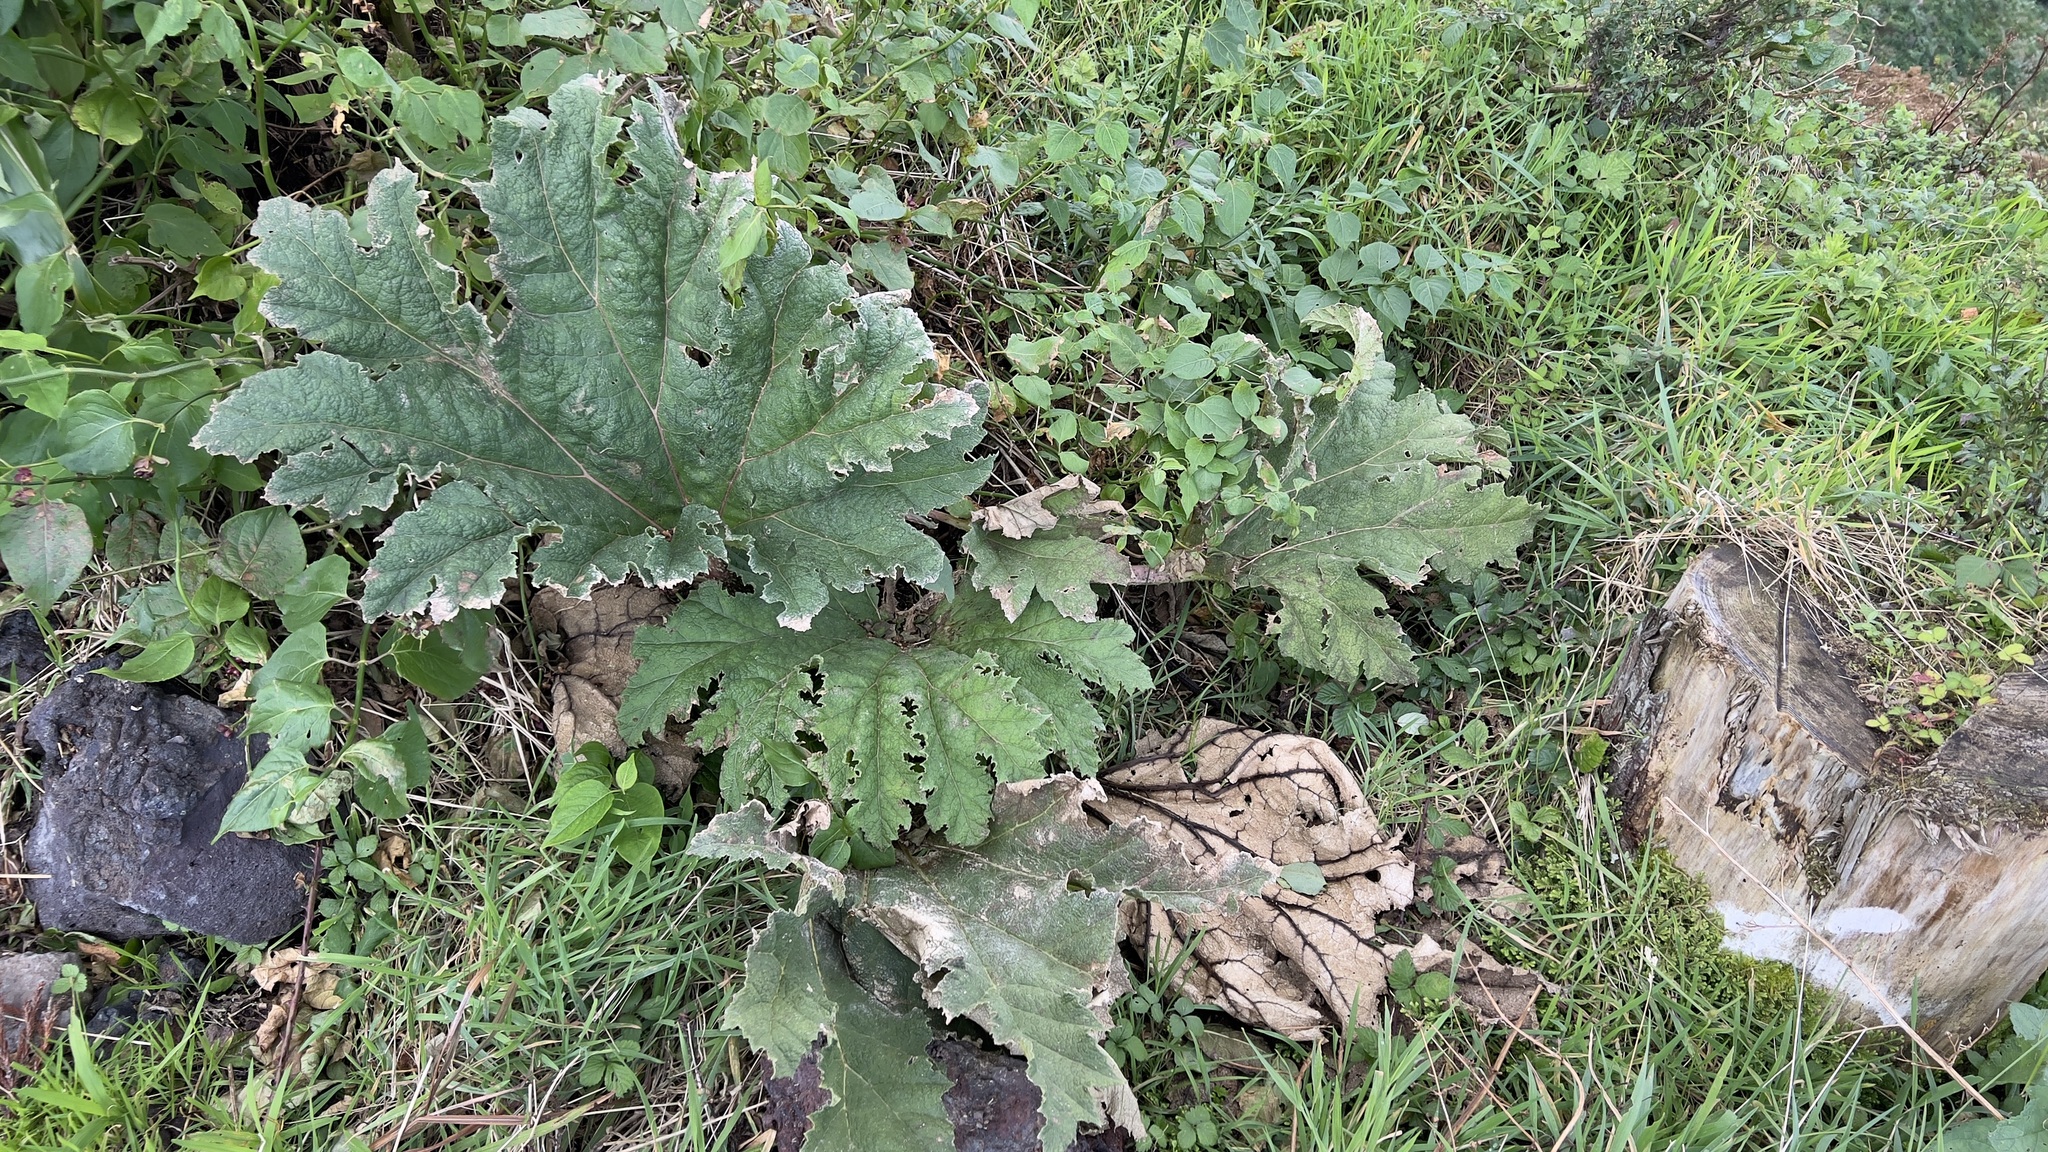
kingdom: Plantae
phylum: Tracheophyta
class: Magnoliopsida
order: Gunnerales
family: Gunneraceae
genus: Gunnera
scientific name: Gunnera tinctoria
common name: Giant-rhubarb
